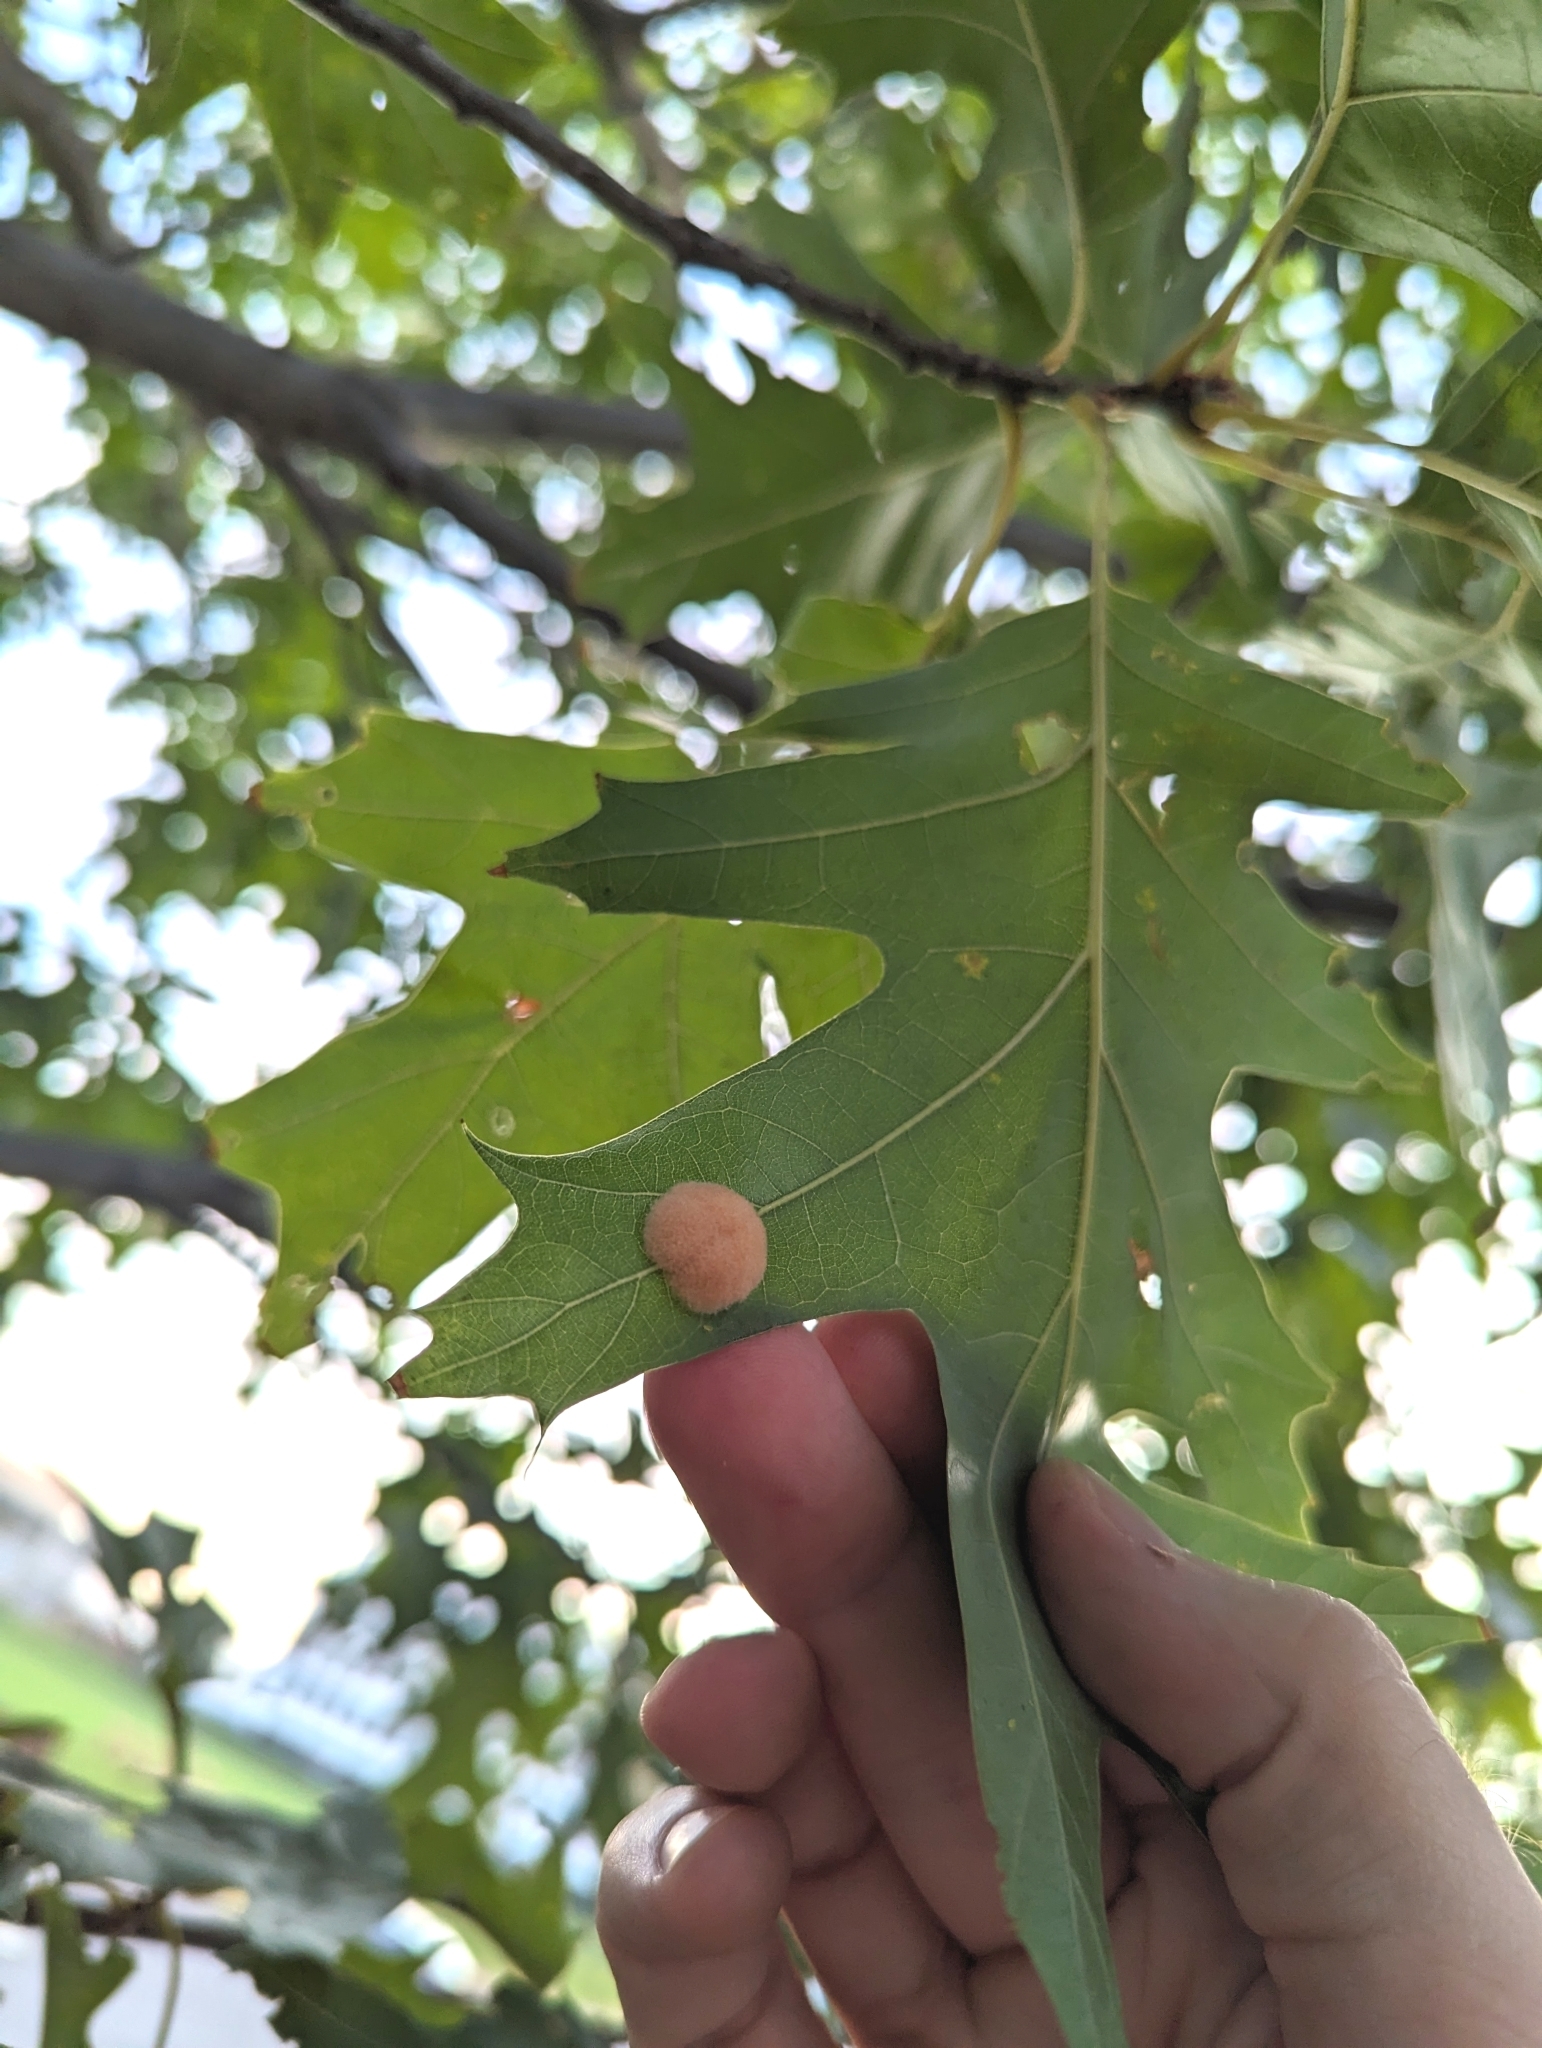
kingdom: Animalia
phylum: Arthropoda
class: Insecta
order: Hymenoptera
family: Cynipidae
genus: Callirhytis
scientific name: Callirhytis
